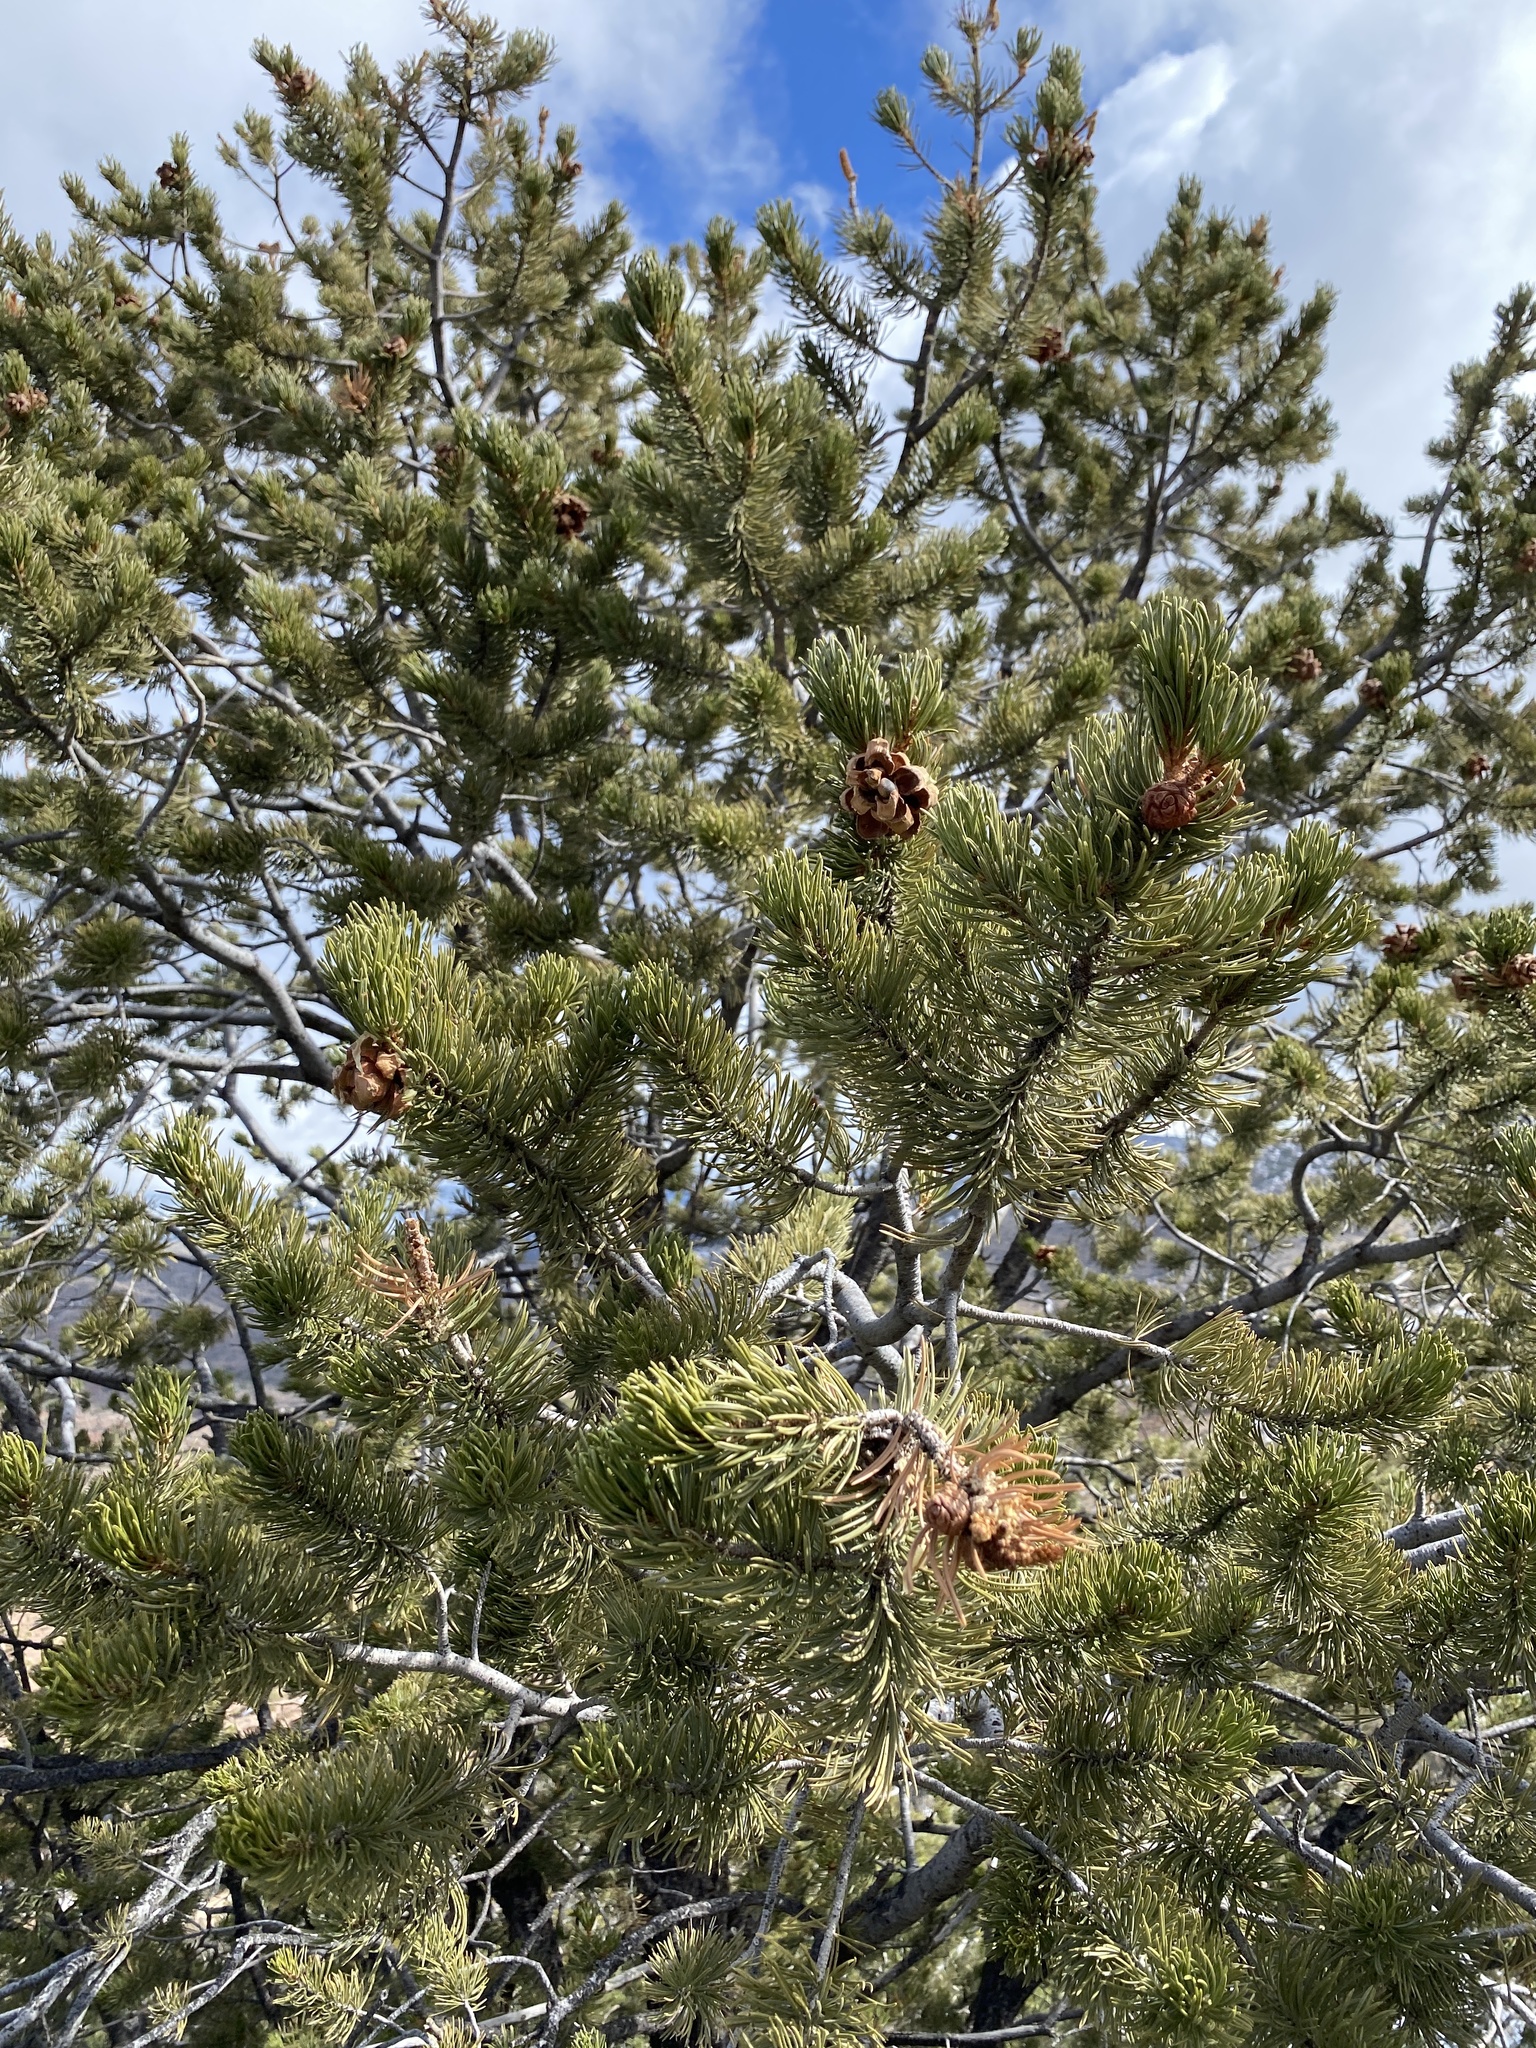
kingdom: Plantae
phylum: Tracheophyta
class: Pinopsida
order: Pinales
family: Pinaceae
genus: Pinus
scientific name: Pinus edulis
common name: Colorado pinyon
